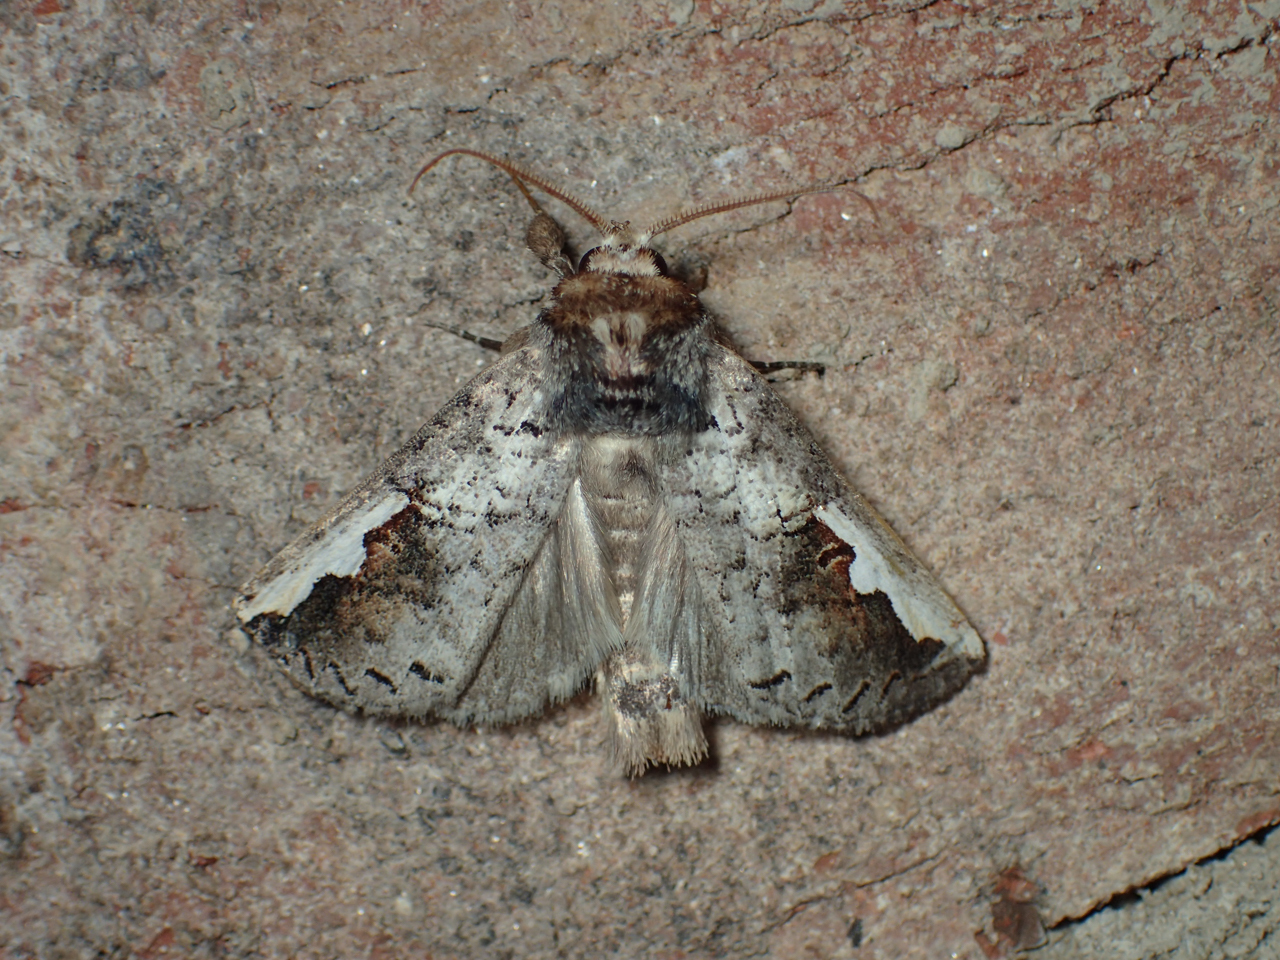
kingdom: Animalia
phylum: Arthropoda
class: Insecta
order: Lepidoptera
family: Notodontidae
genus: Symmerista
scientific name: Symmerista
